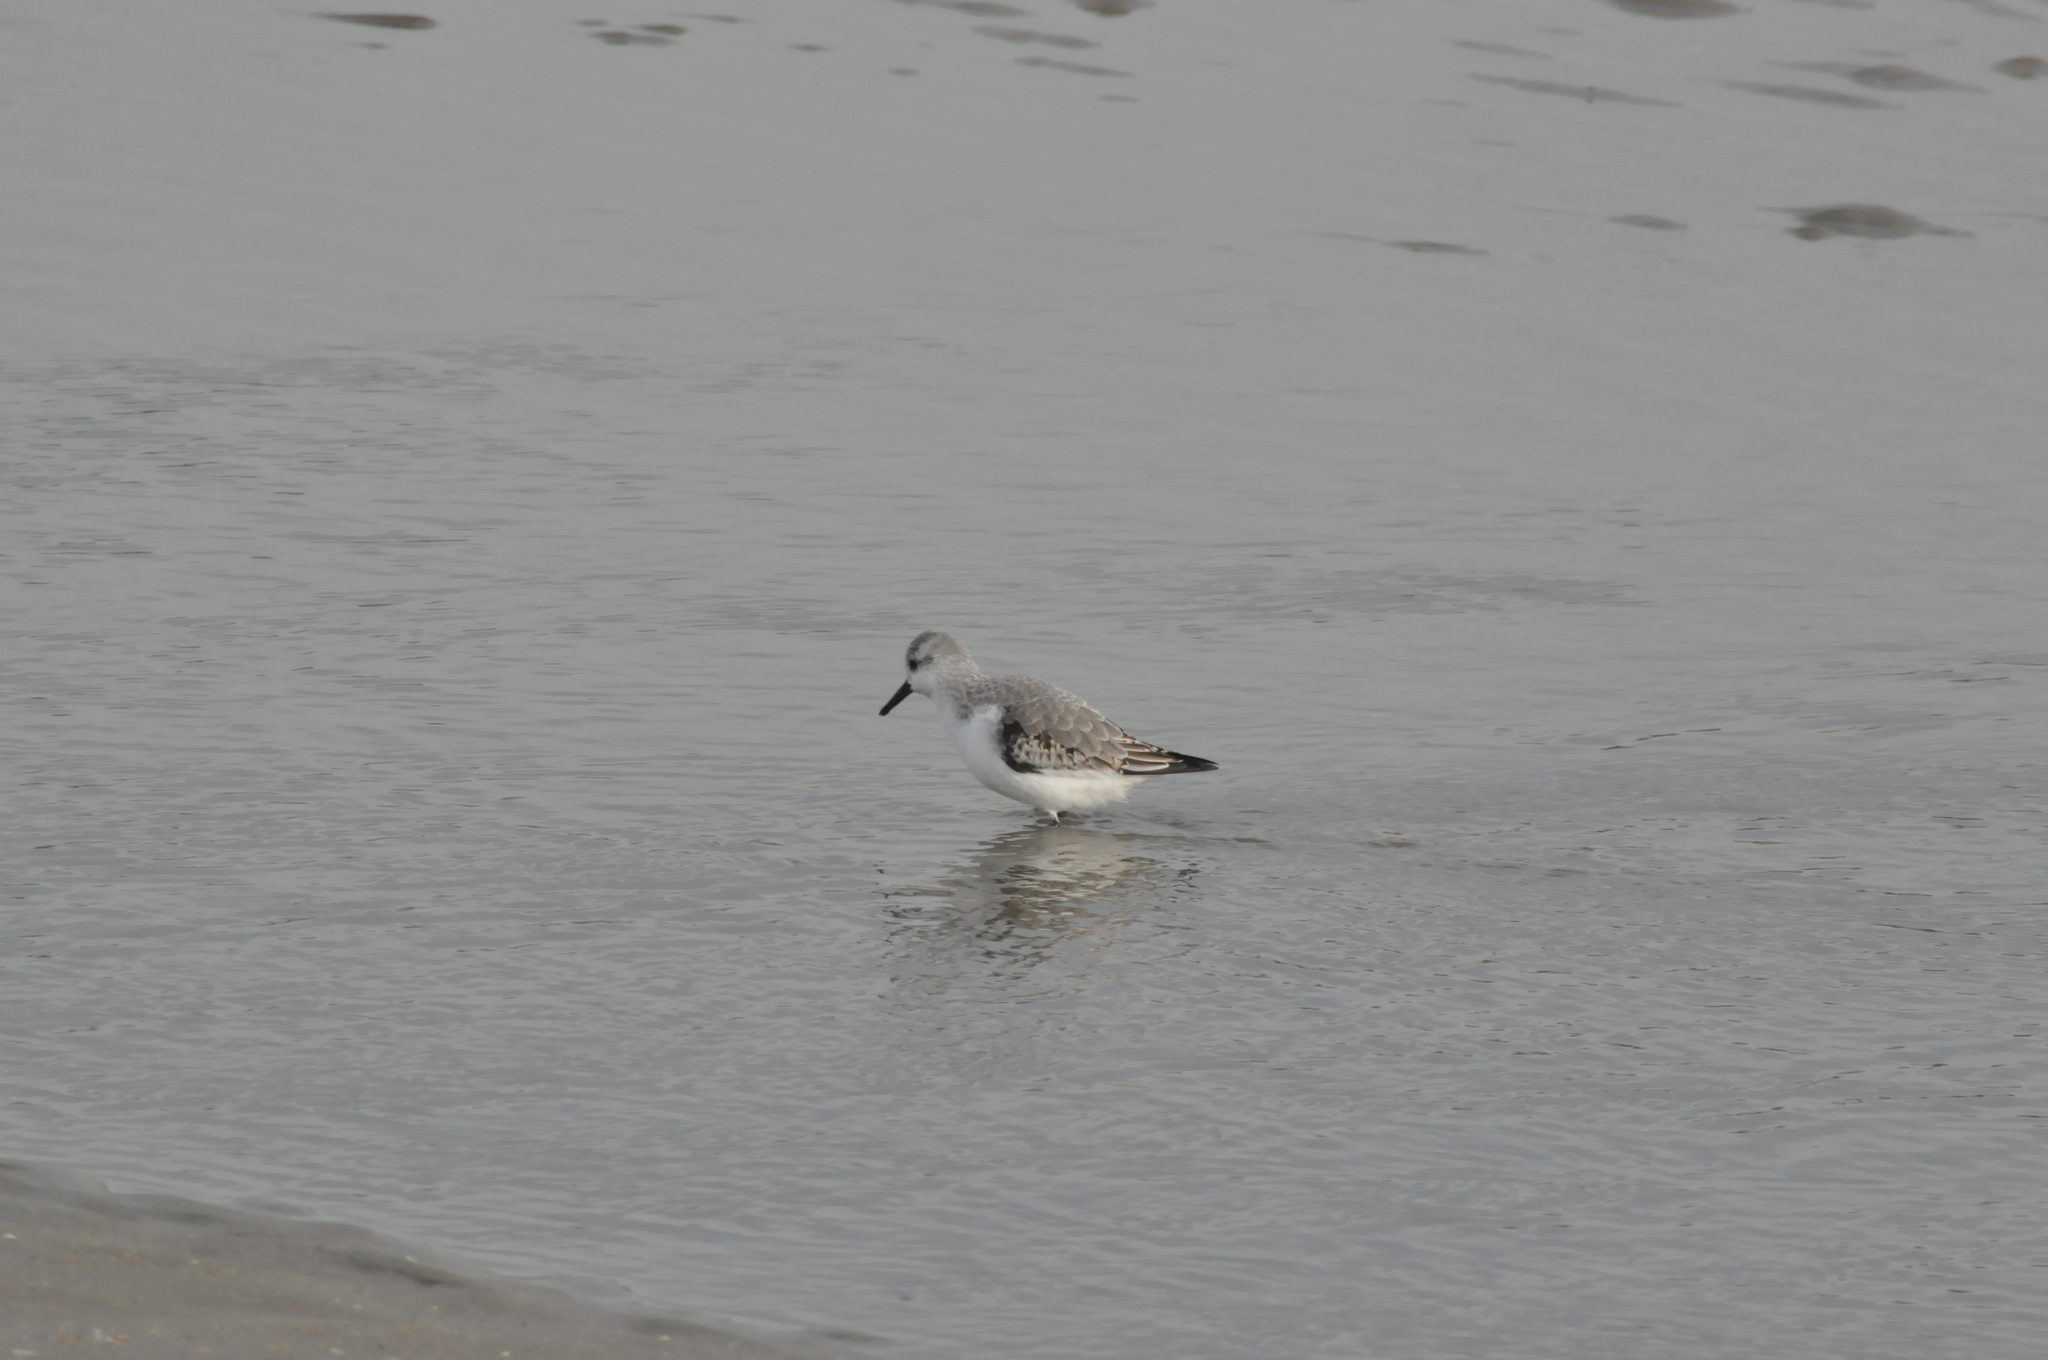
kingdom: Animalia
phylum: Chordata
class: Aves
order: Charadriiformes
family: Scolopacidae
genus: Calidris
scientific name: Calidris alba
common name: Sanderling
